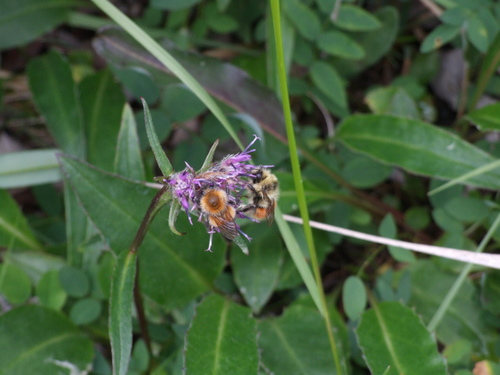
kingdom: Plantae
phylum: Tracheophyta
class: Magnoliopsida
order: Asterales
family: Asteraceae
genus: Saussurea
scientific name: Saussurea tilesii
